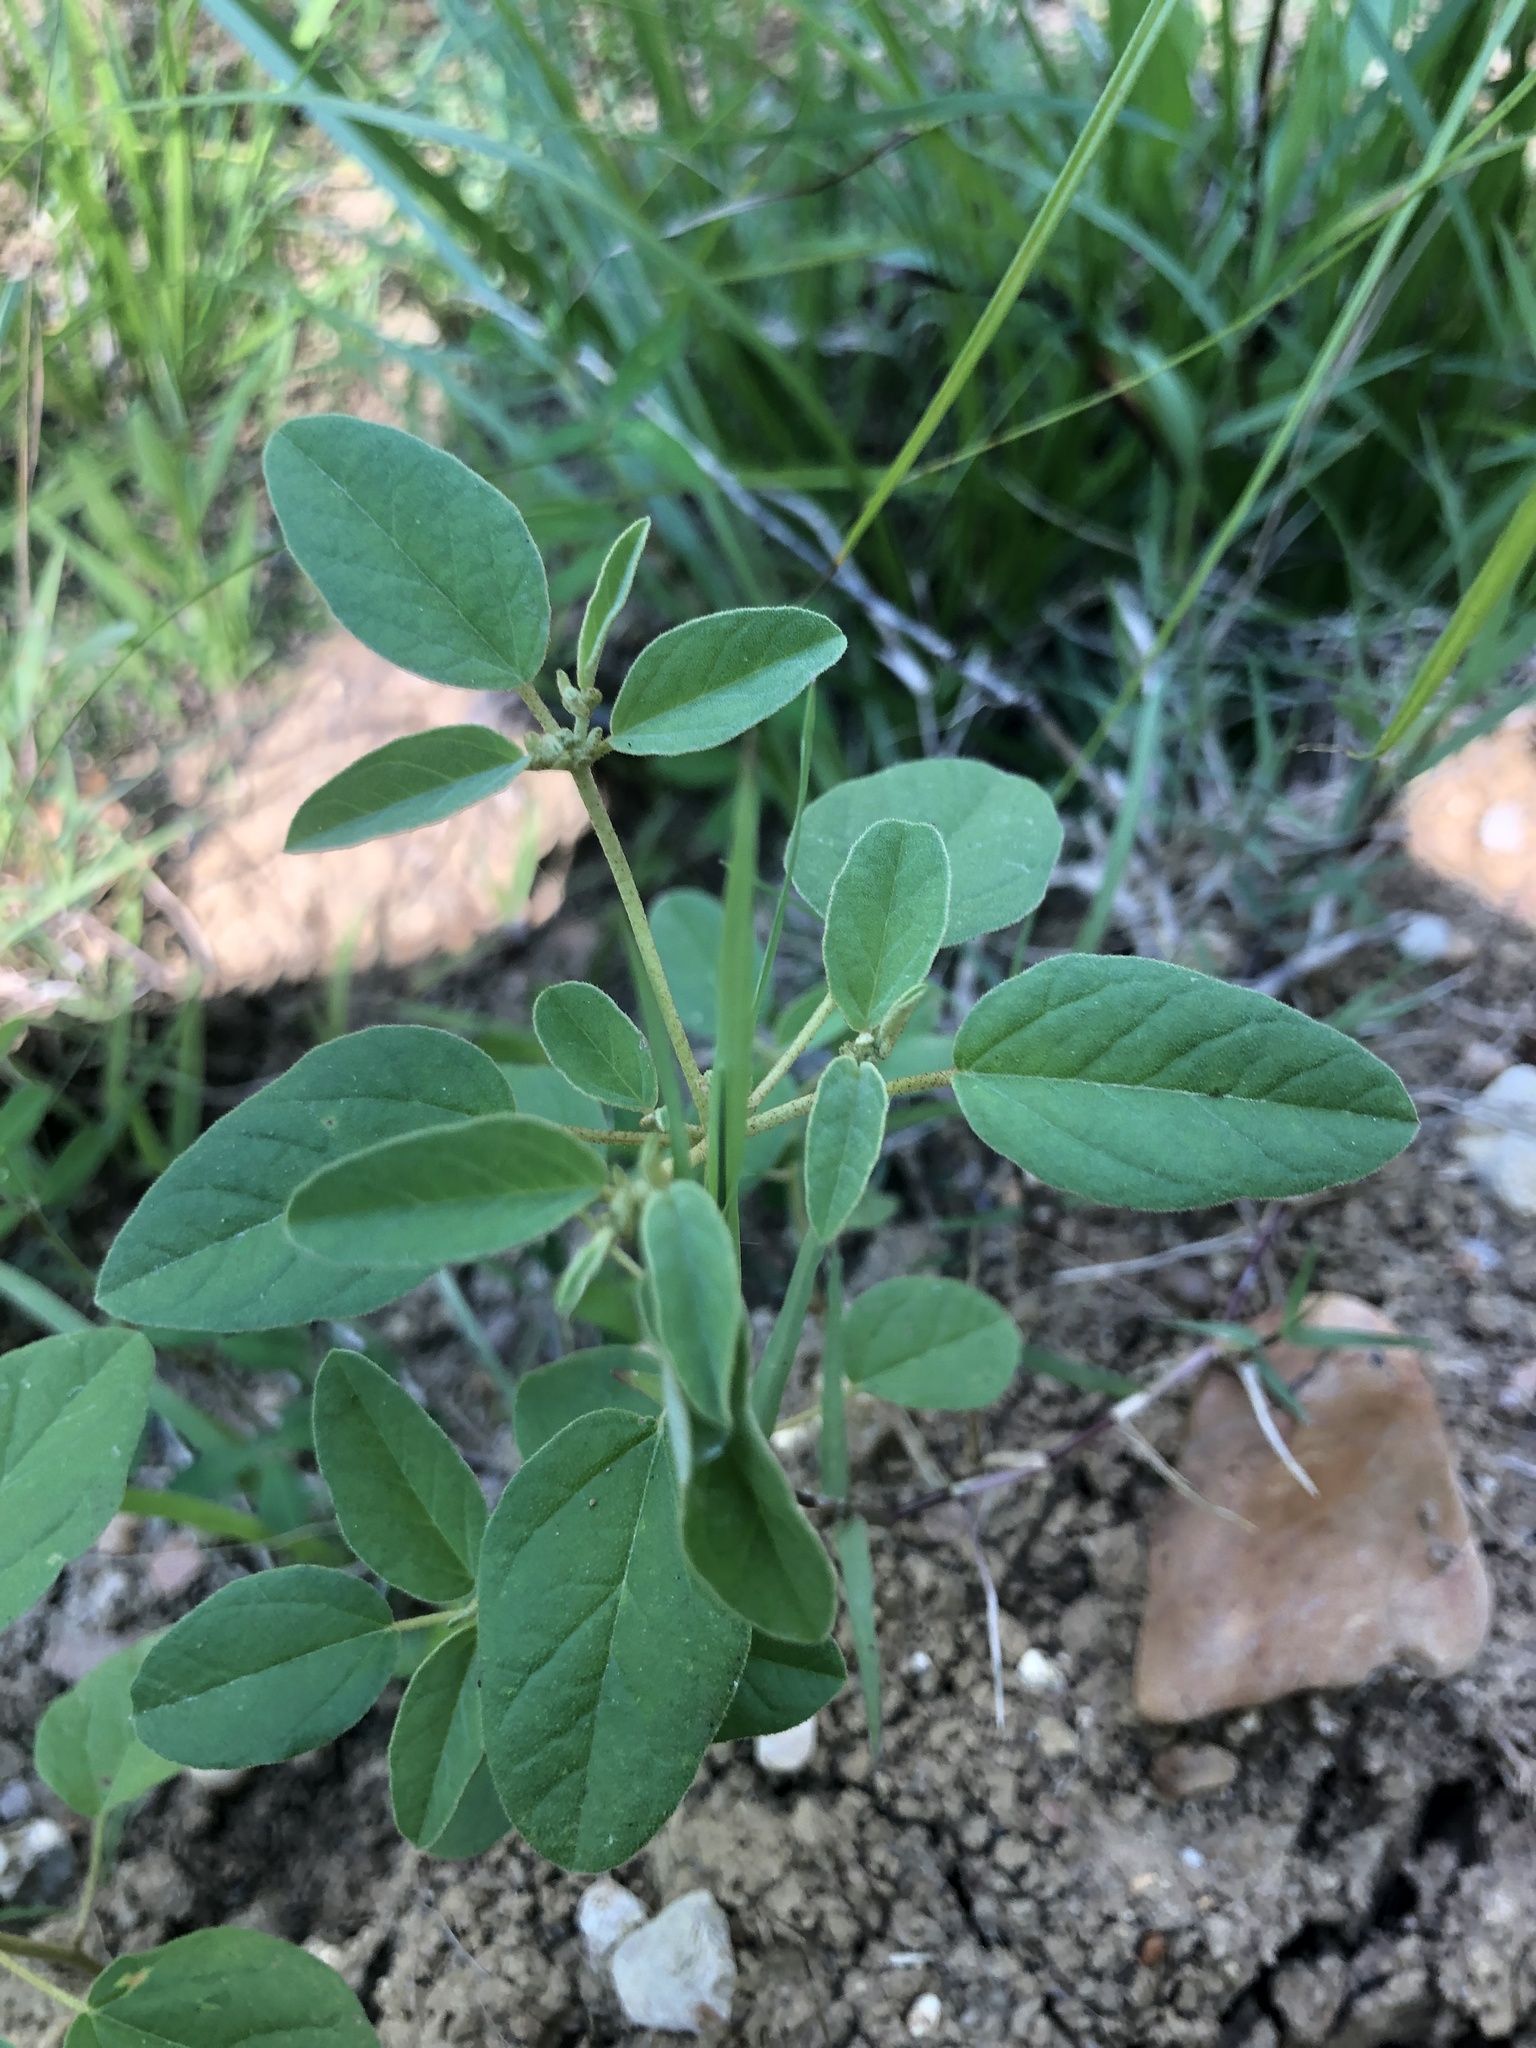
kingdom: Plantae
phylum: Tracheophyta
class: Magnoliopsida
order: Malpighiales
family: Euphorbiaceae
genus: Croton
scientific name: Croton monanthogynus
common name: One-seed croton
